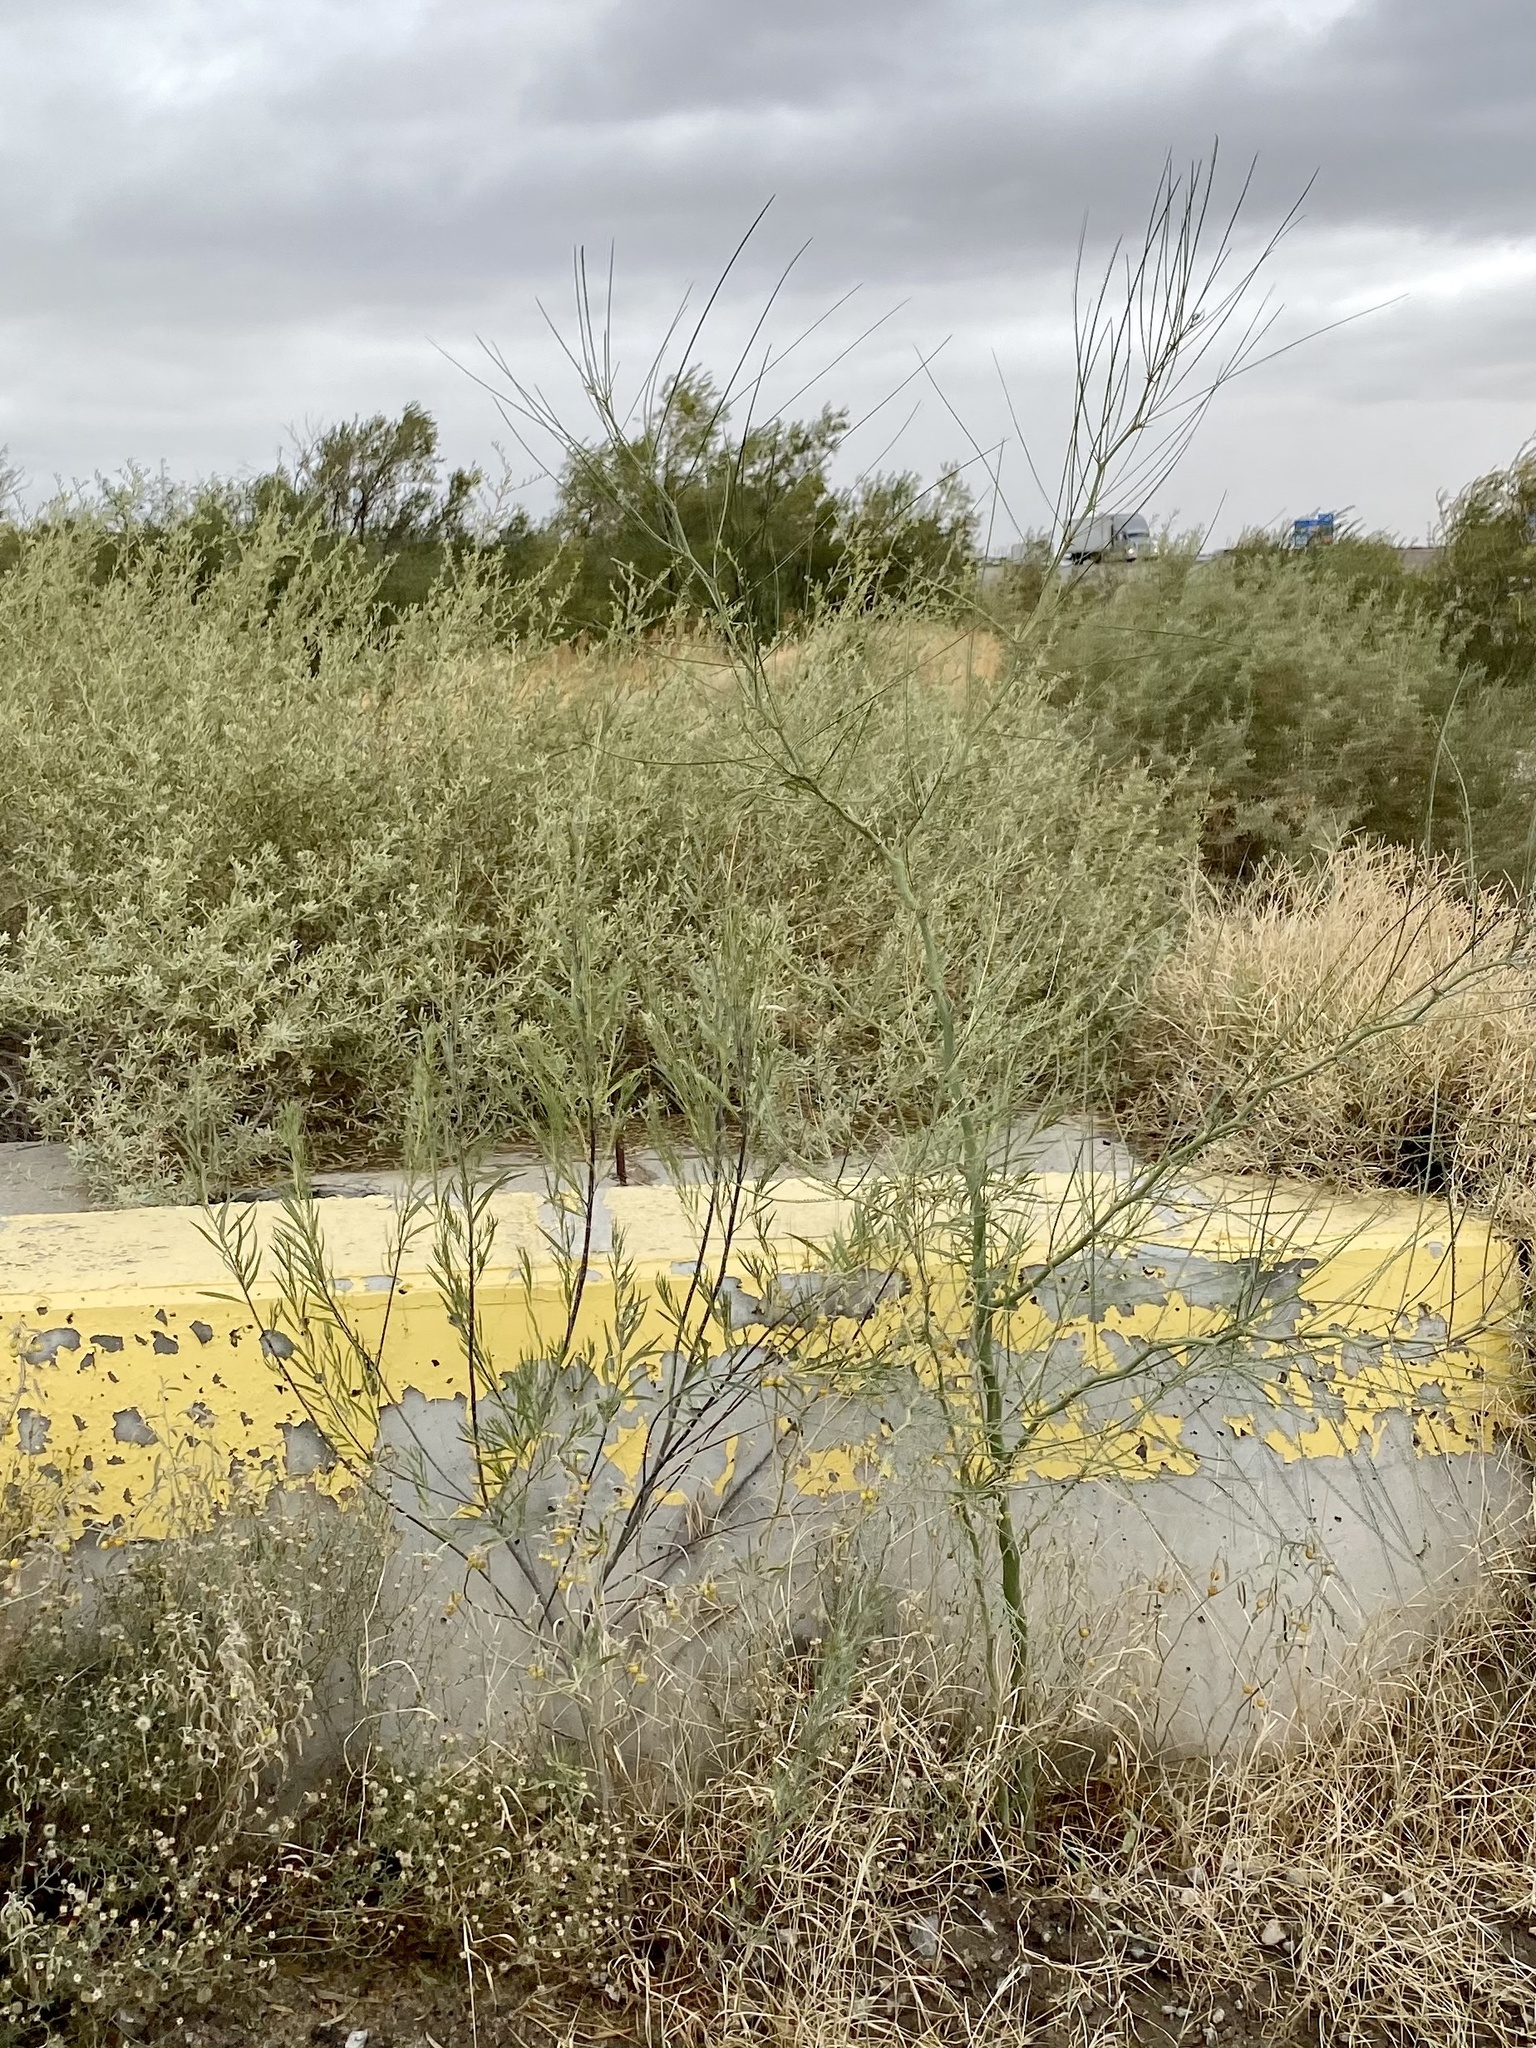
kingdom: Plantae
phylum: Tracheophyta
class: Magnoliopsida
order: Fabales
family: Fabaceae
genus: Parkinsonia
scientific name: Parkinsonia aculeata
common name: Jerusalem thorn
